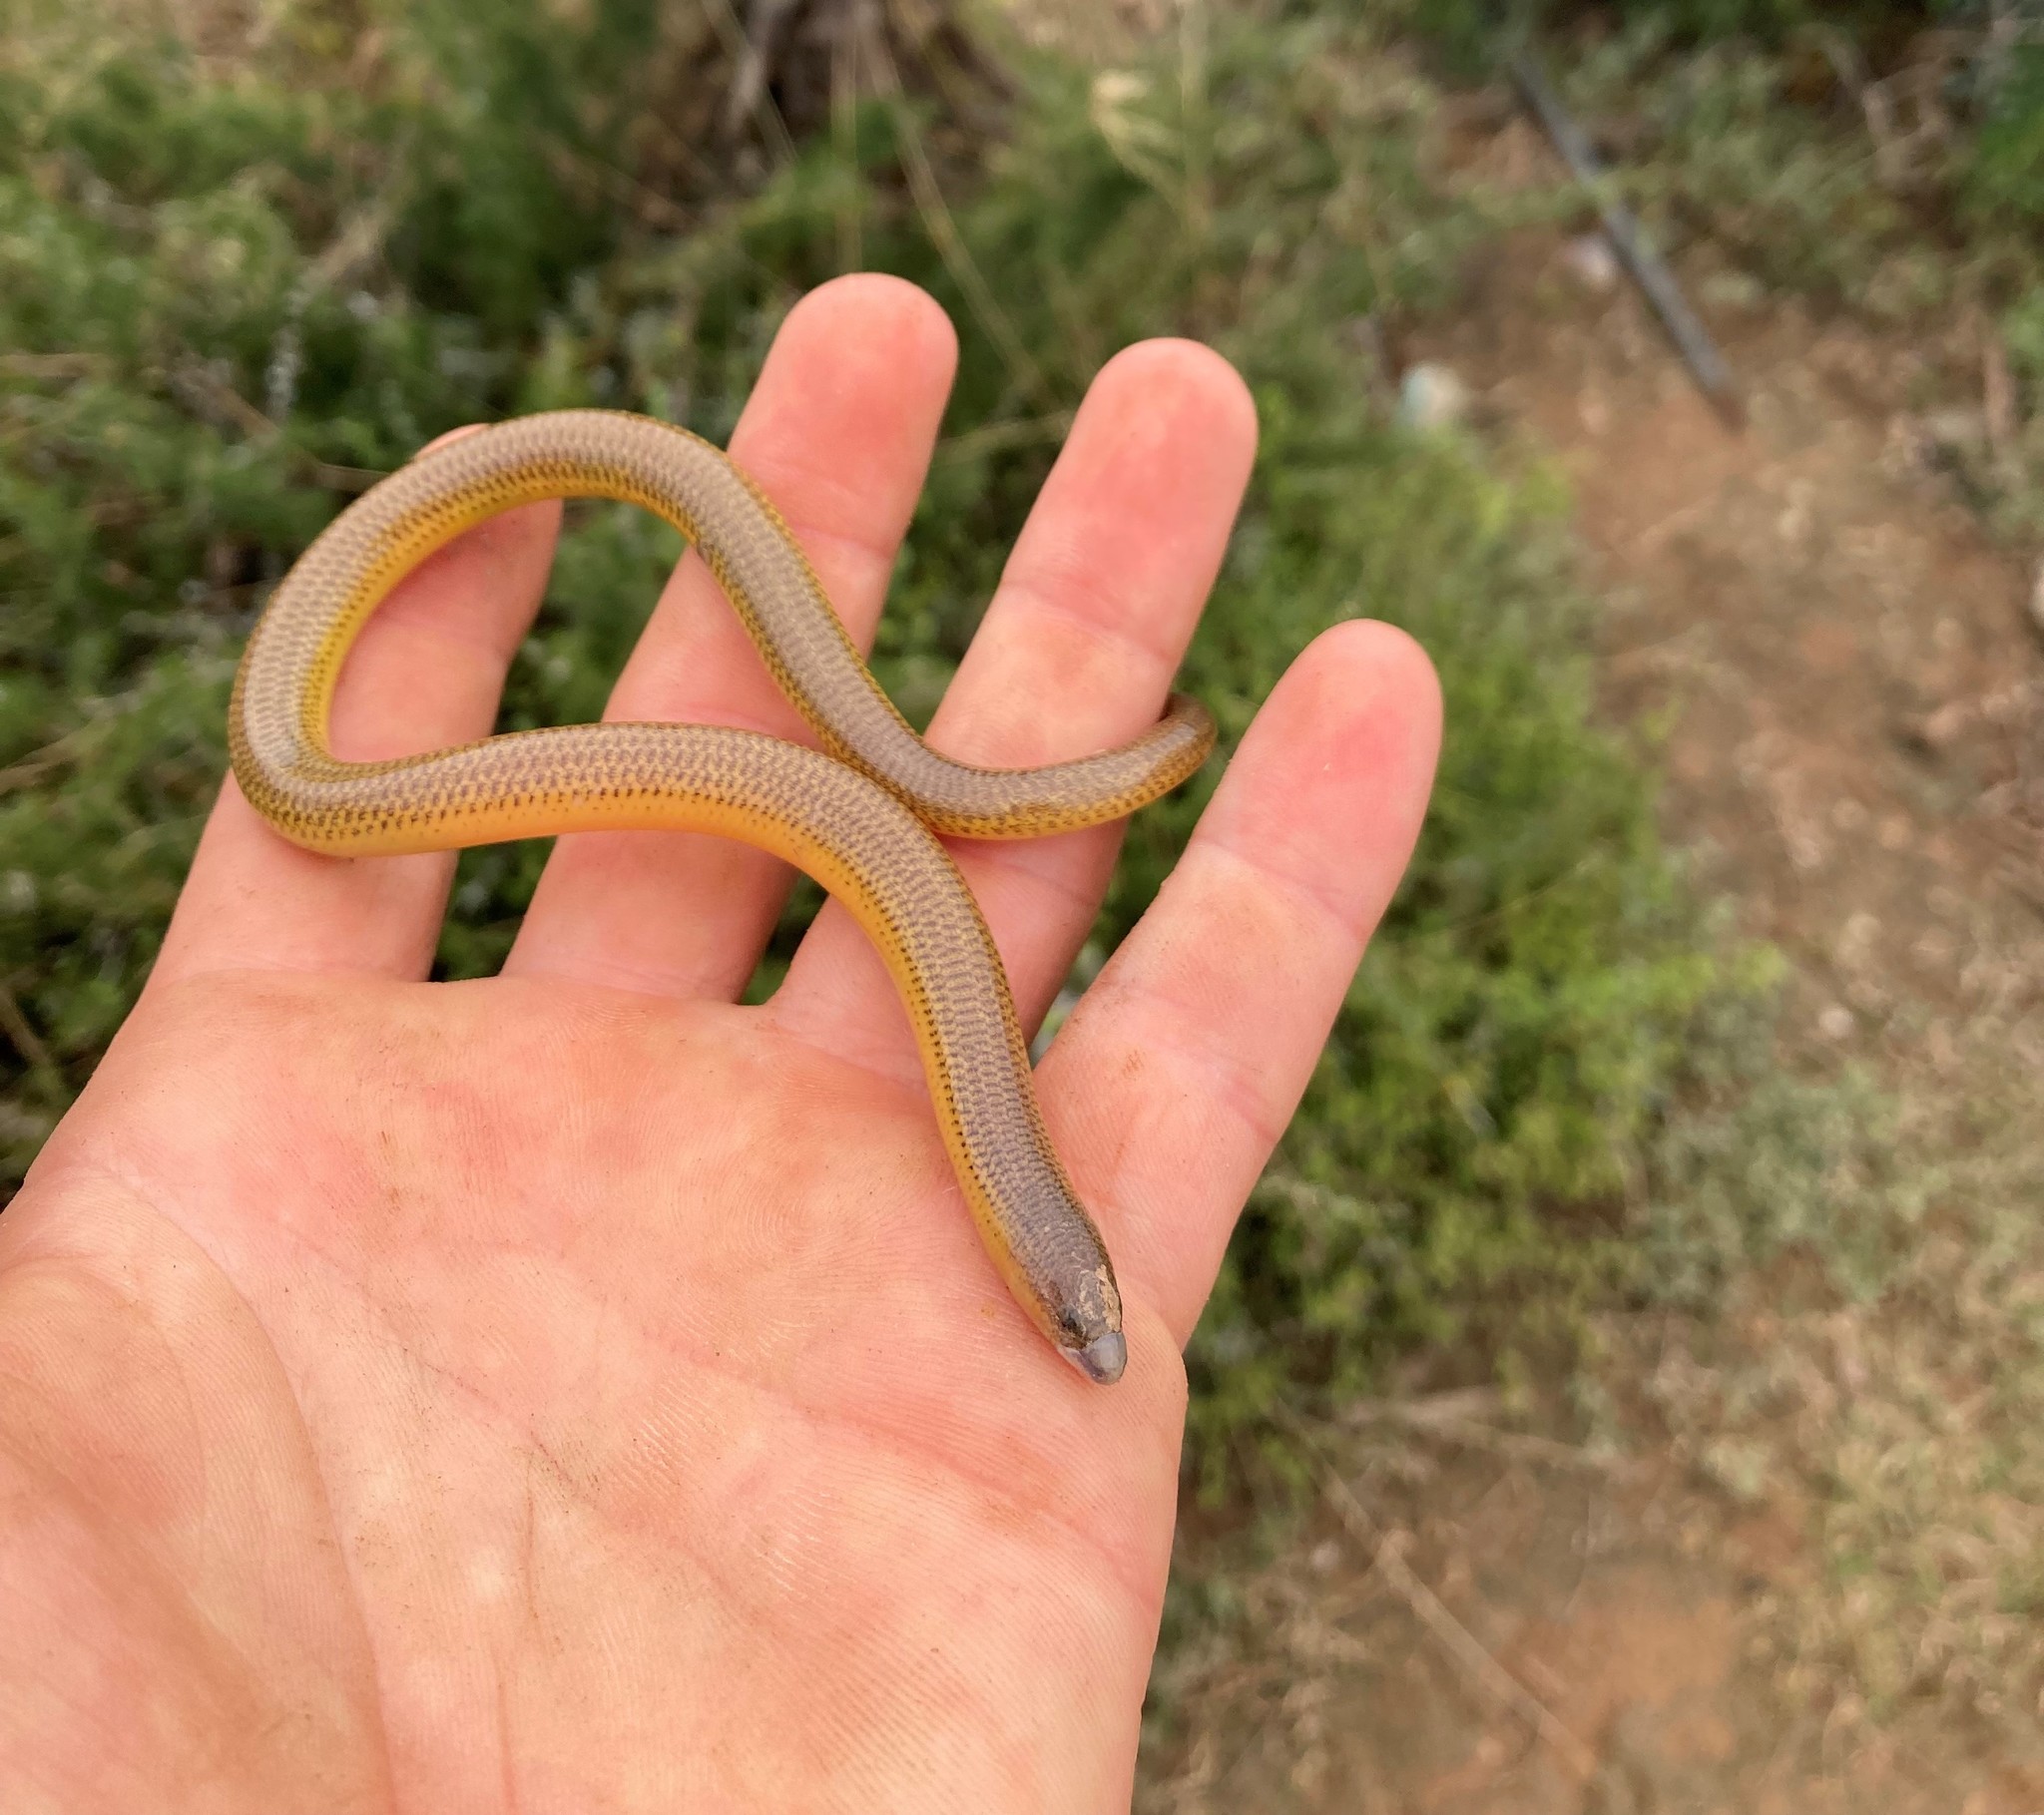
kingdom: Animalia
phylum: Chordata
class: Squamata
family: Scincidae
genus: Acontias
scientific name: Acontias meleagris
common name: Cape legless skink
